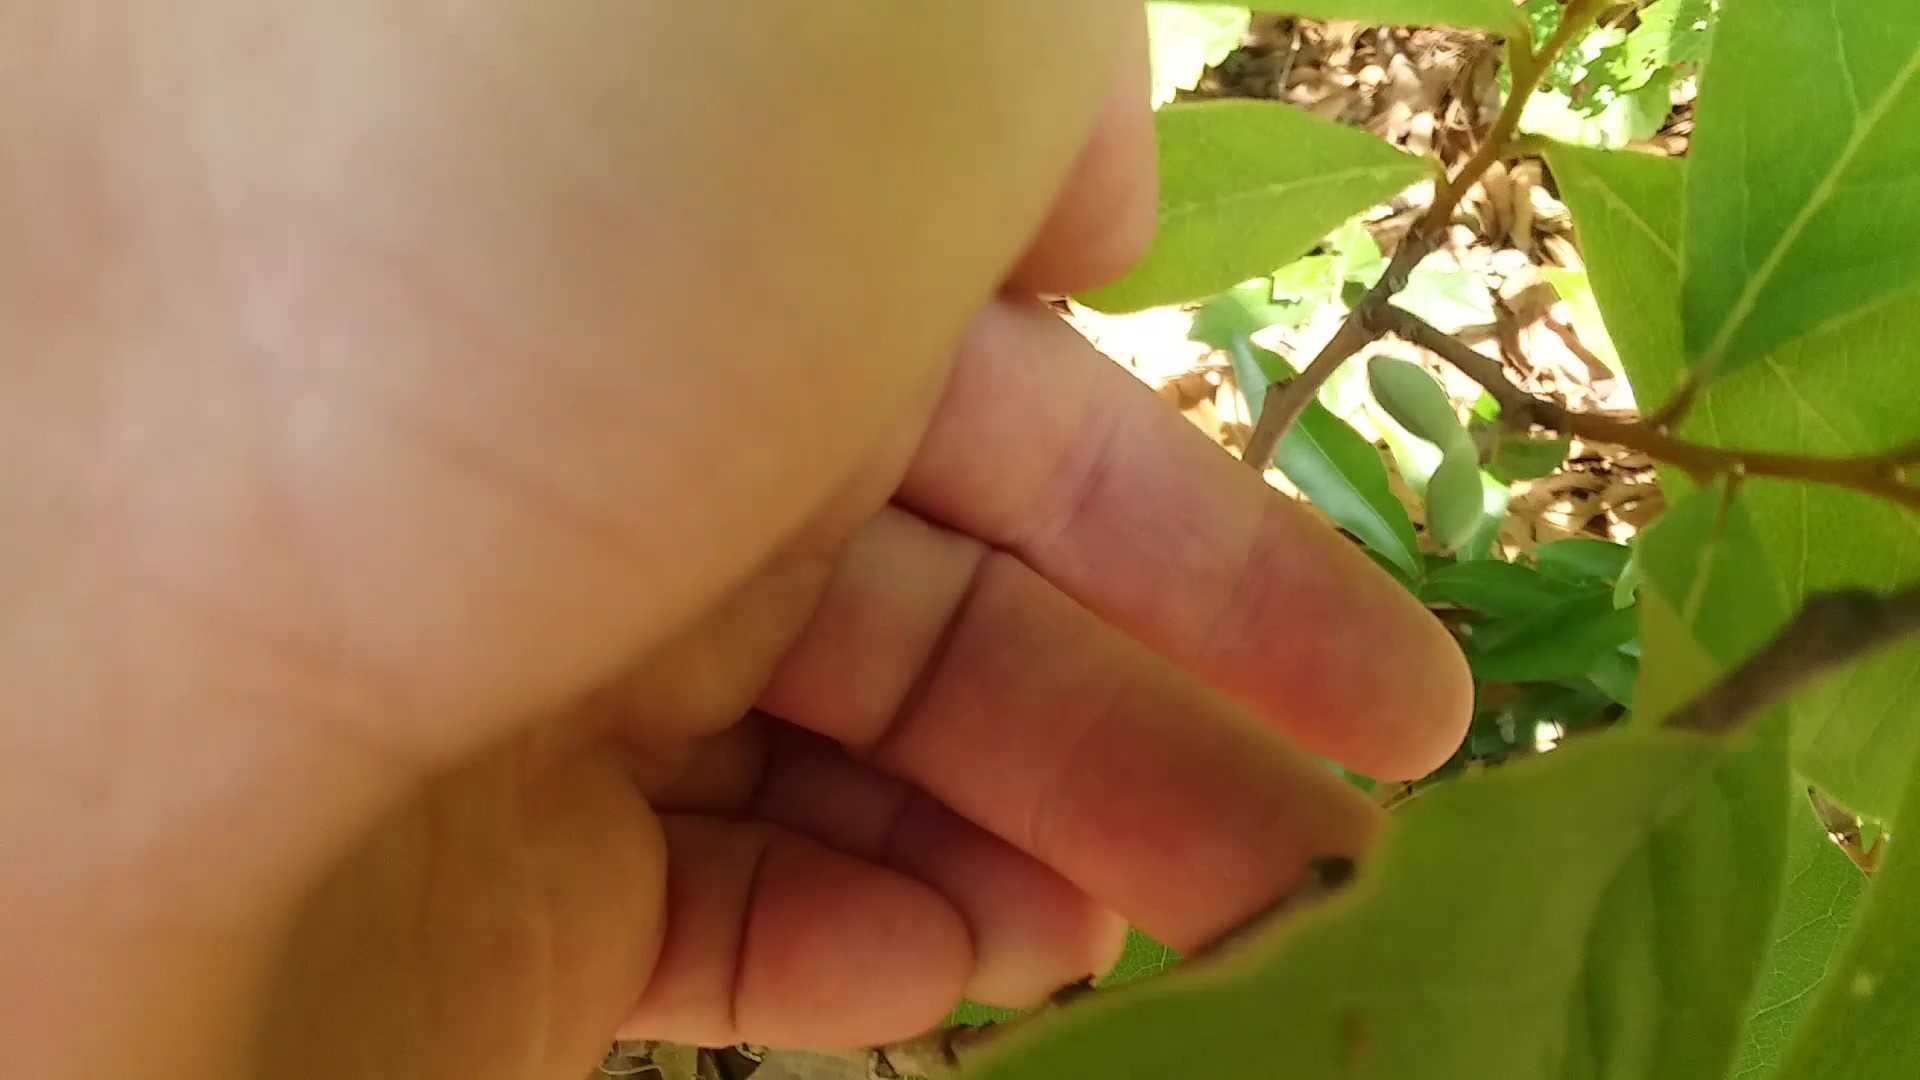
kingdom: Plantae
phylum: Tracheophyta
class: Magnoliopsida
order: Magnoliales
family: Annonaceae
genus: Asimina
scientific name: Asimina parviflora
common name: Dwarf pawpaw
